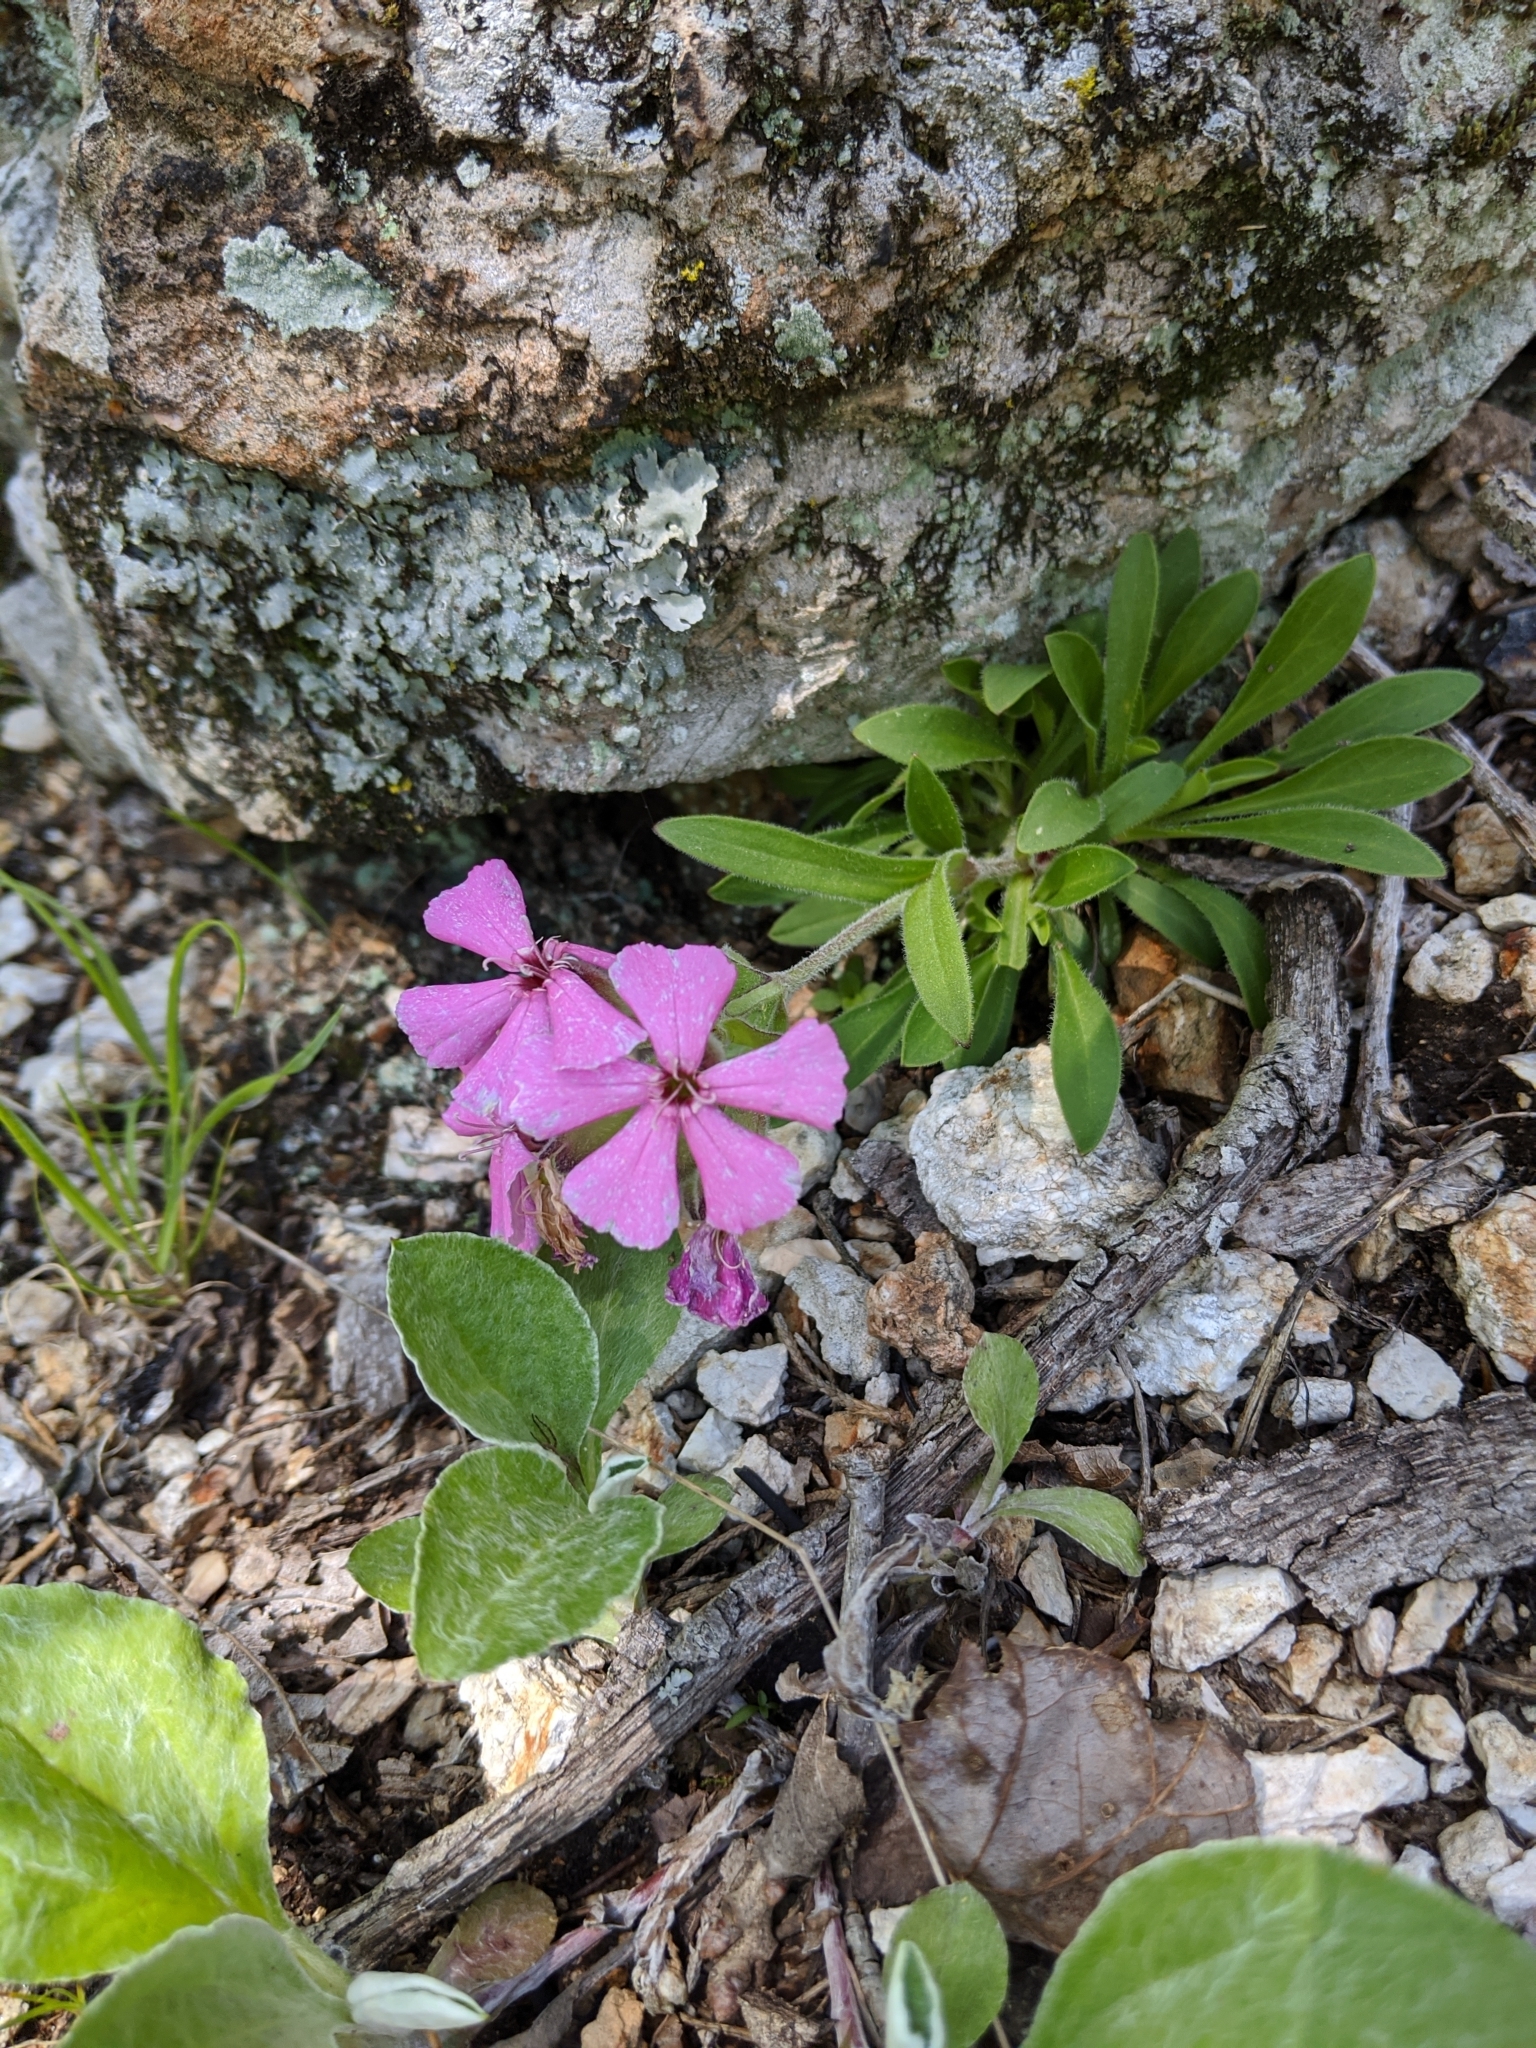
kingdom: Plantae
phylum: Tracheophyta
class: Magnoliopsida
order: Caryophyllales
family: Caryophyllaceae
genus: Silene
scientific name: Silene caroliniana
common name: Sticky catchfly
